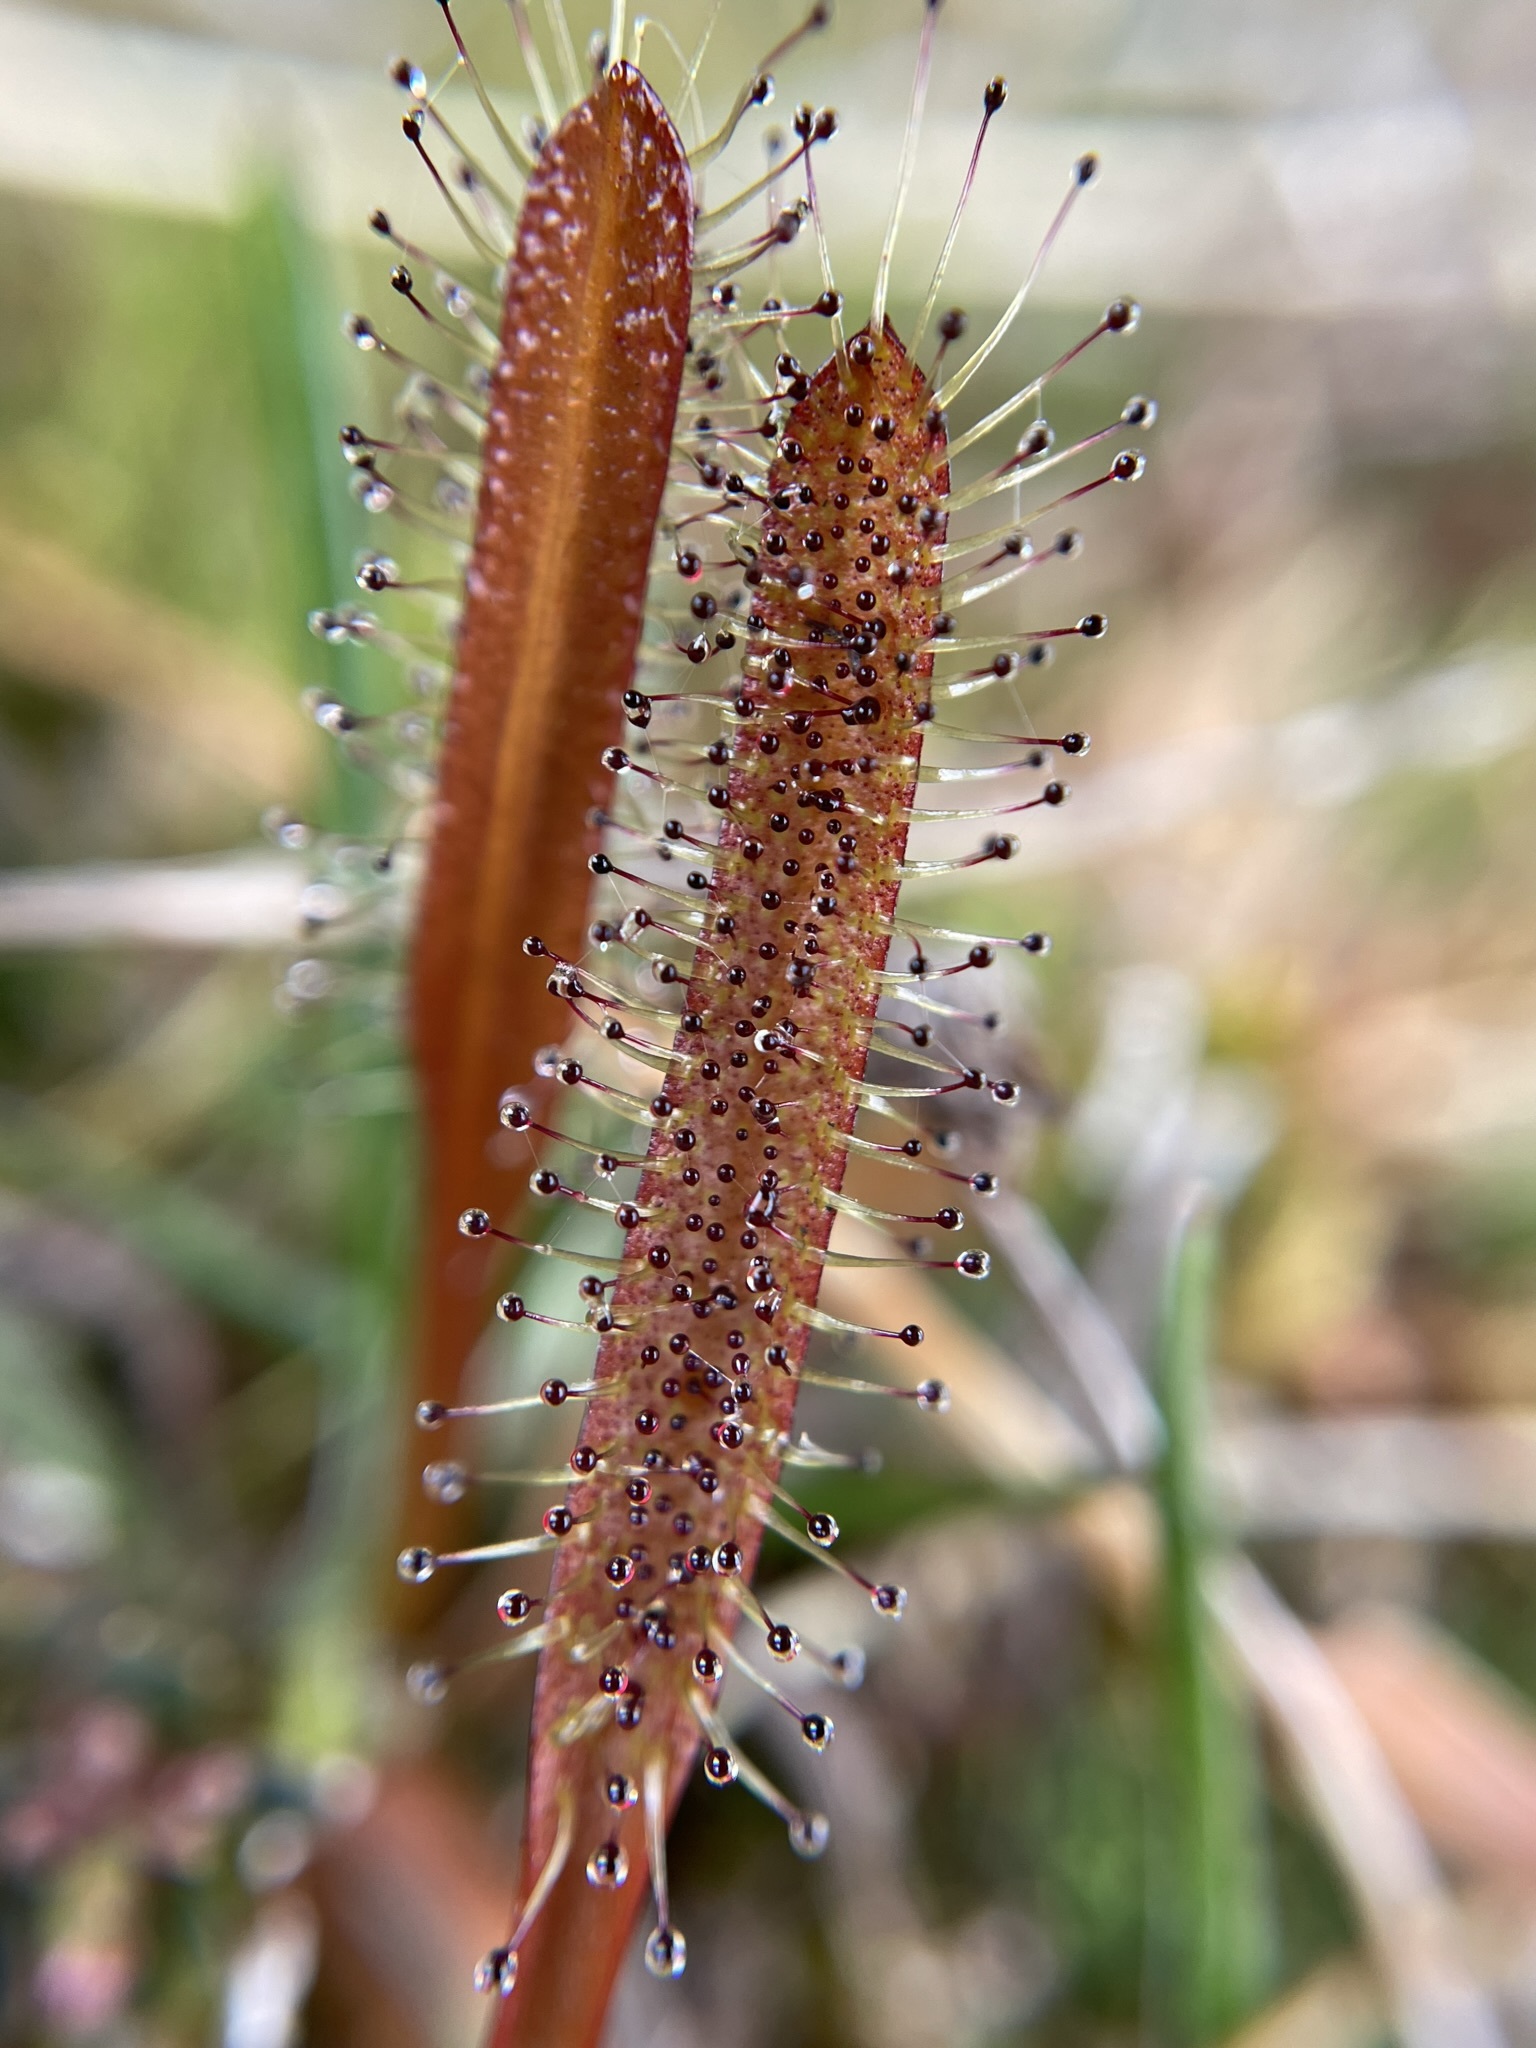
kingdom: Plantae
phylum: Tracheophyta
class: Magnoliopsida
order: Caryophyllales
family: Droseraceae
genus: Drosera
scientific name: Drosera arcturi
